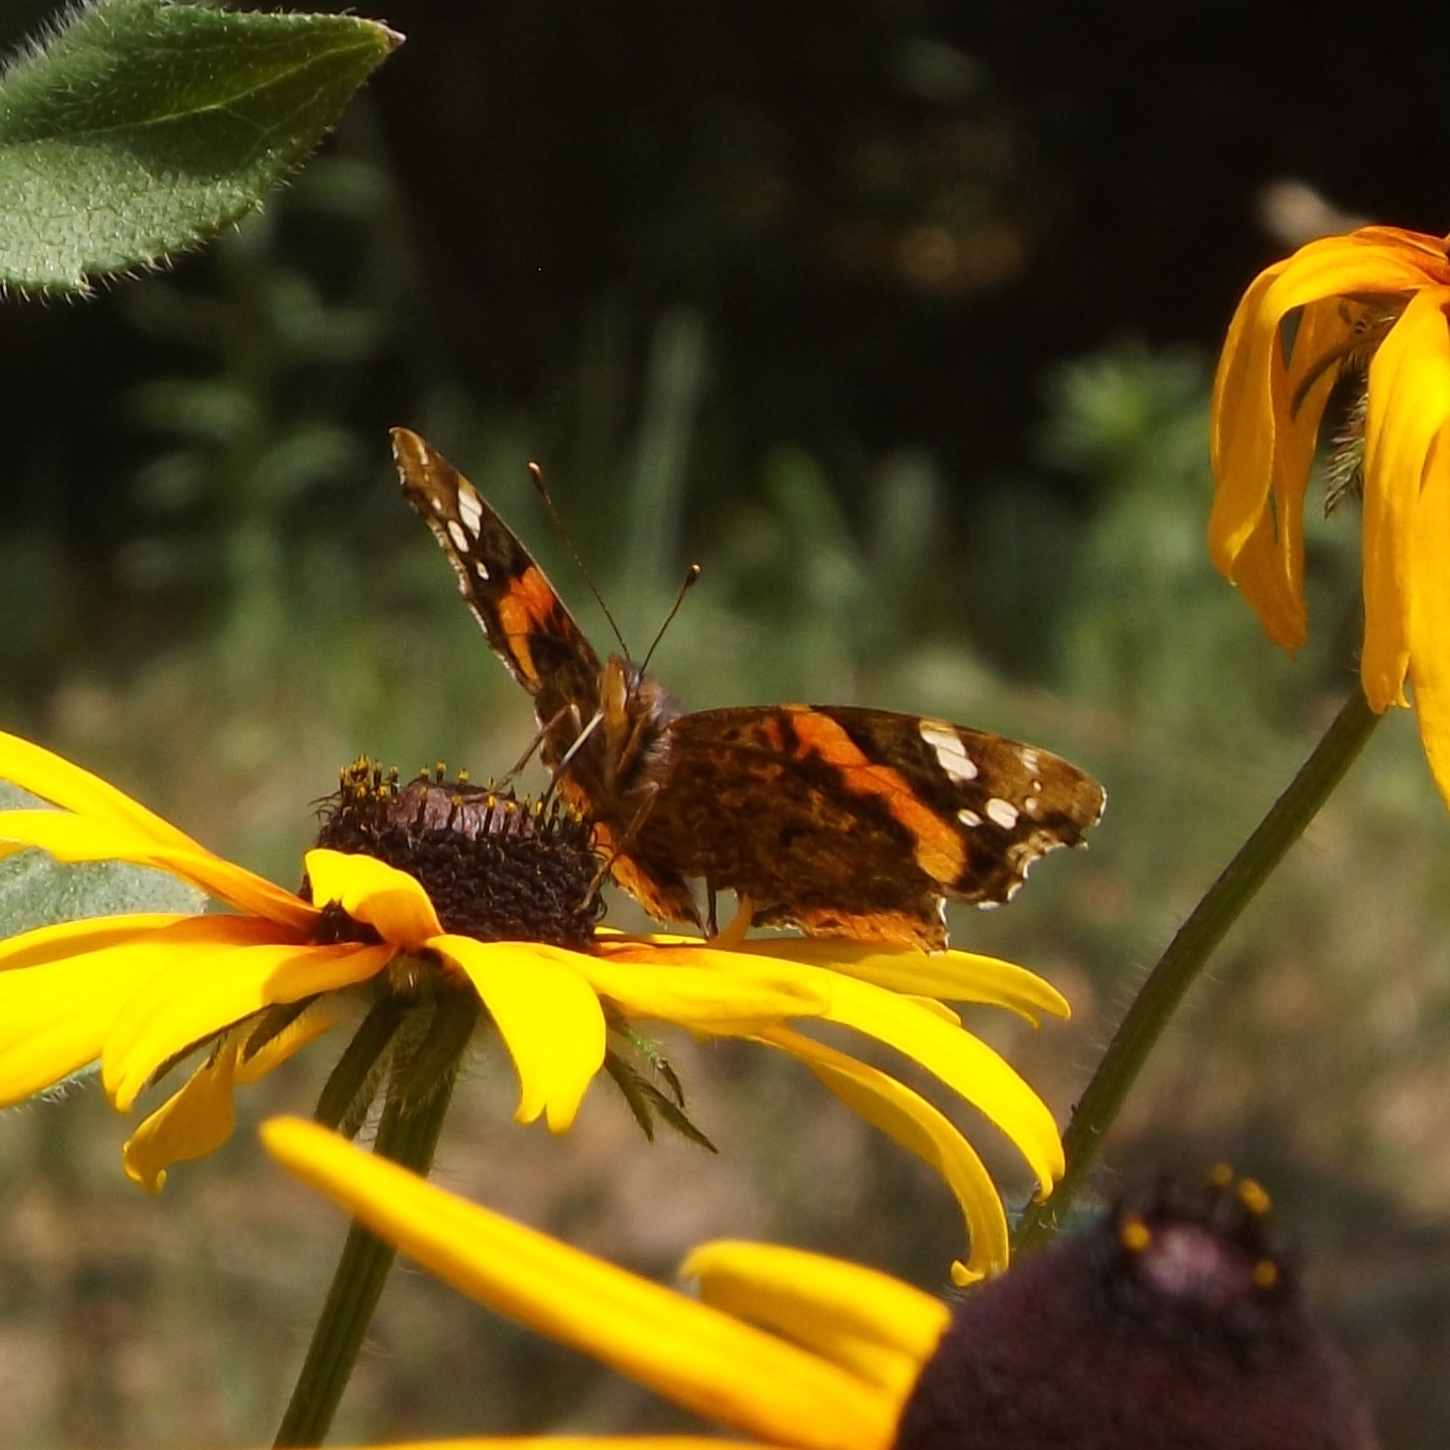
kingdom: Animalia
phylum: Arthropoda
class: Insecta
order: Lepidoptera
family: Nymphalidae
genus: Vanessa
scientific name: Vanessa atalanta
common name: Red admiral
